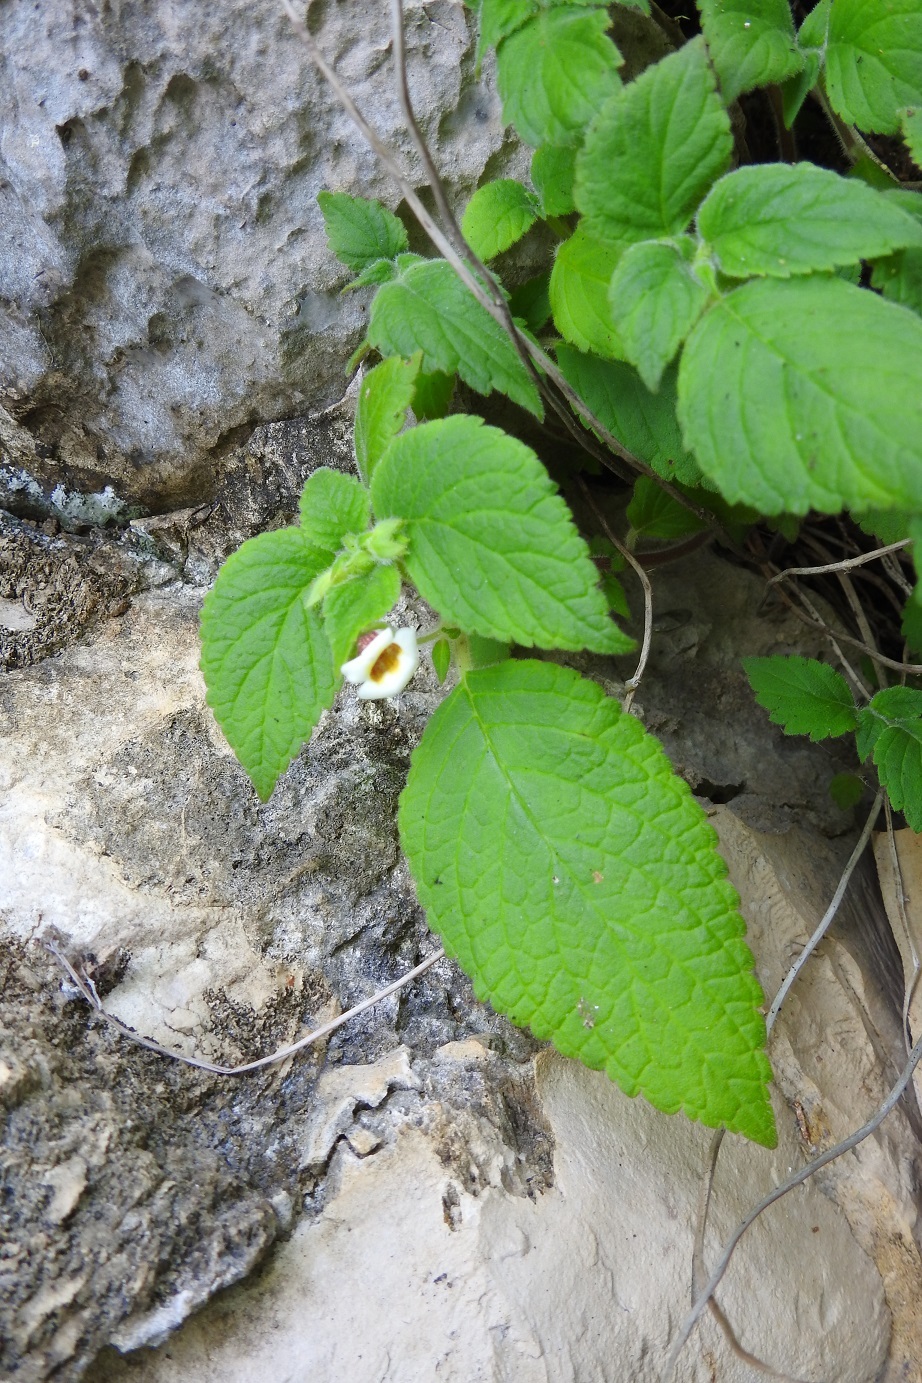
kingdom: Plantae
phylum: Tracheophyta
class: Magnoliopsida
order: Lamiales
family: Gesneriaceae
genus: Achimenes
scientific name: Achimenes misera
